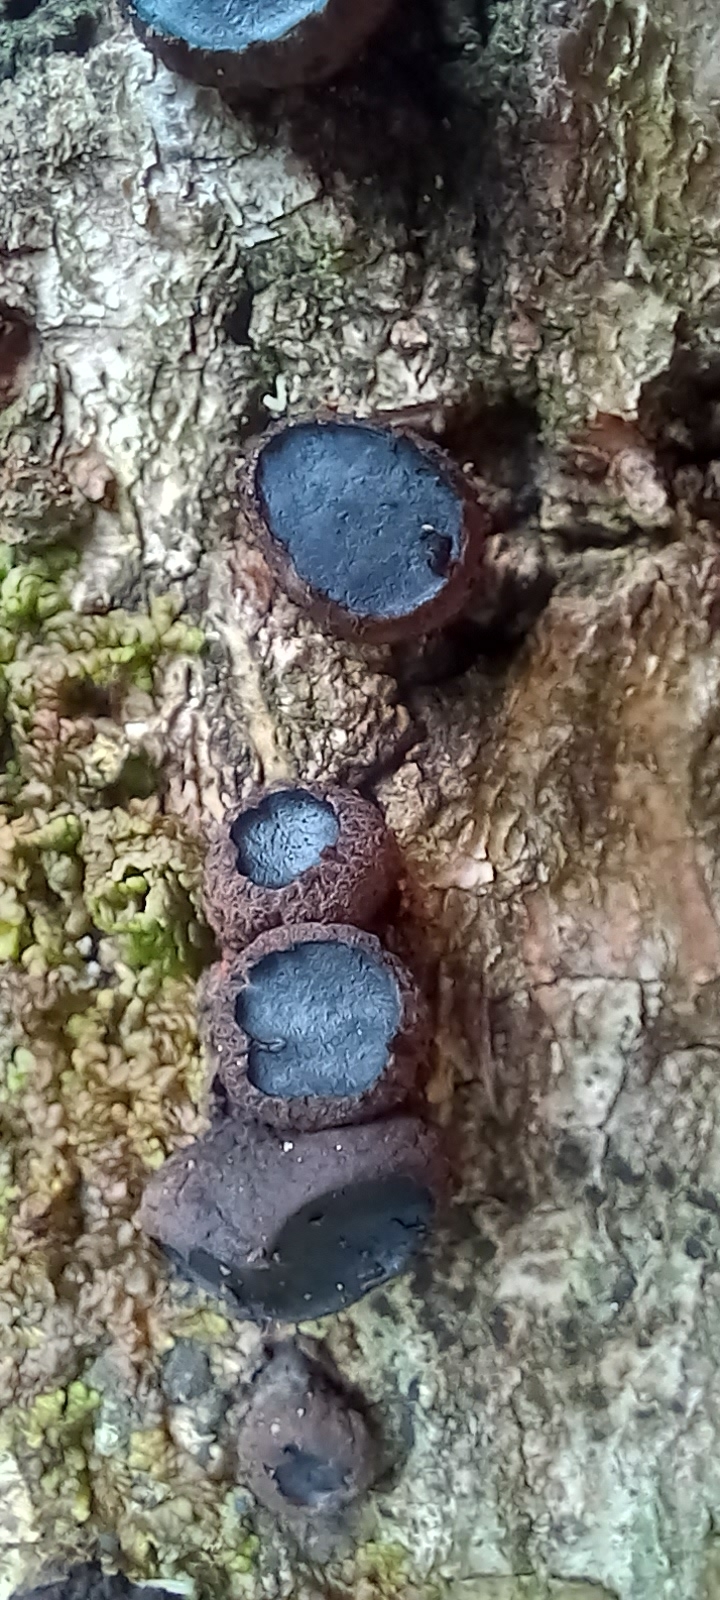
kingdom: Fungi
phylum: Ascomycota
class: Leotiomycetes
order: Phacidiales
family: Phacidiaceae
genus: Bulgaria
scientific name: Bulgaria inquinans
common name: Black bulgar
